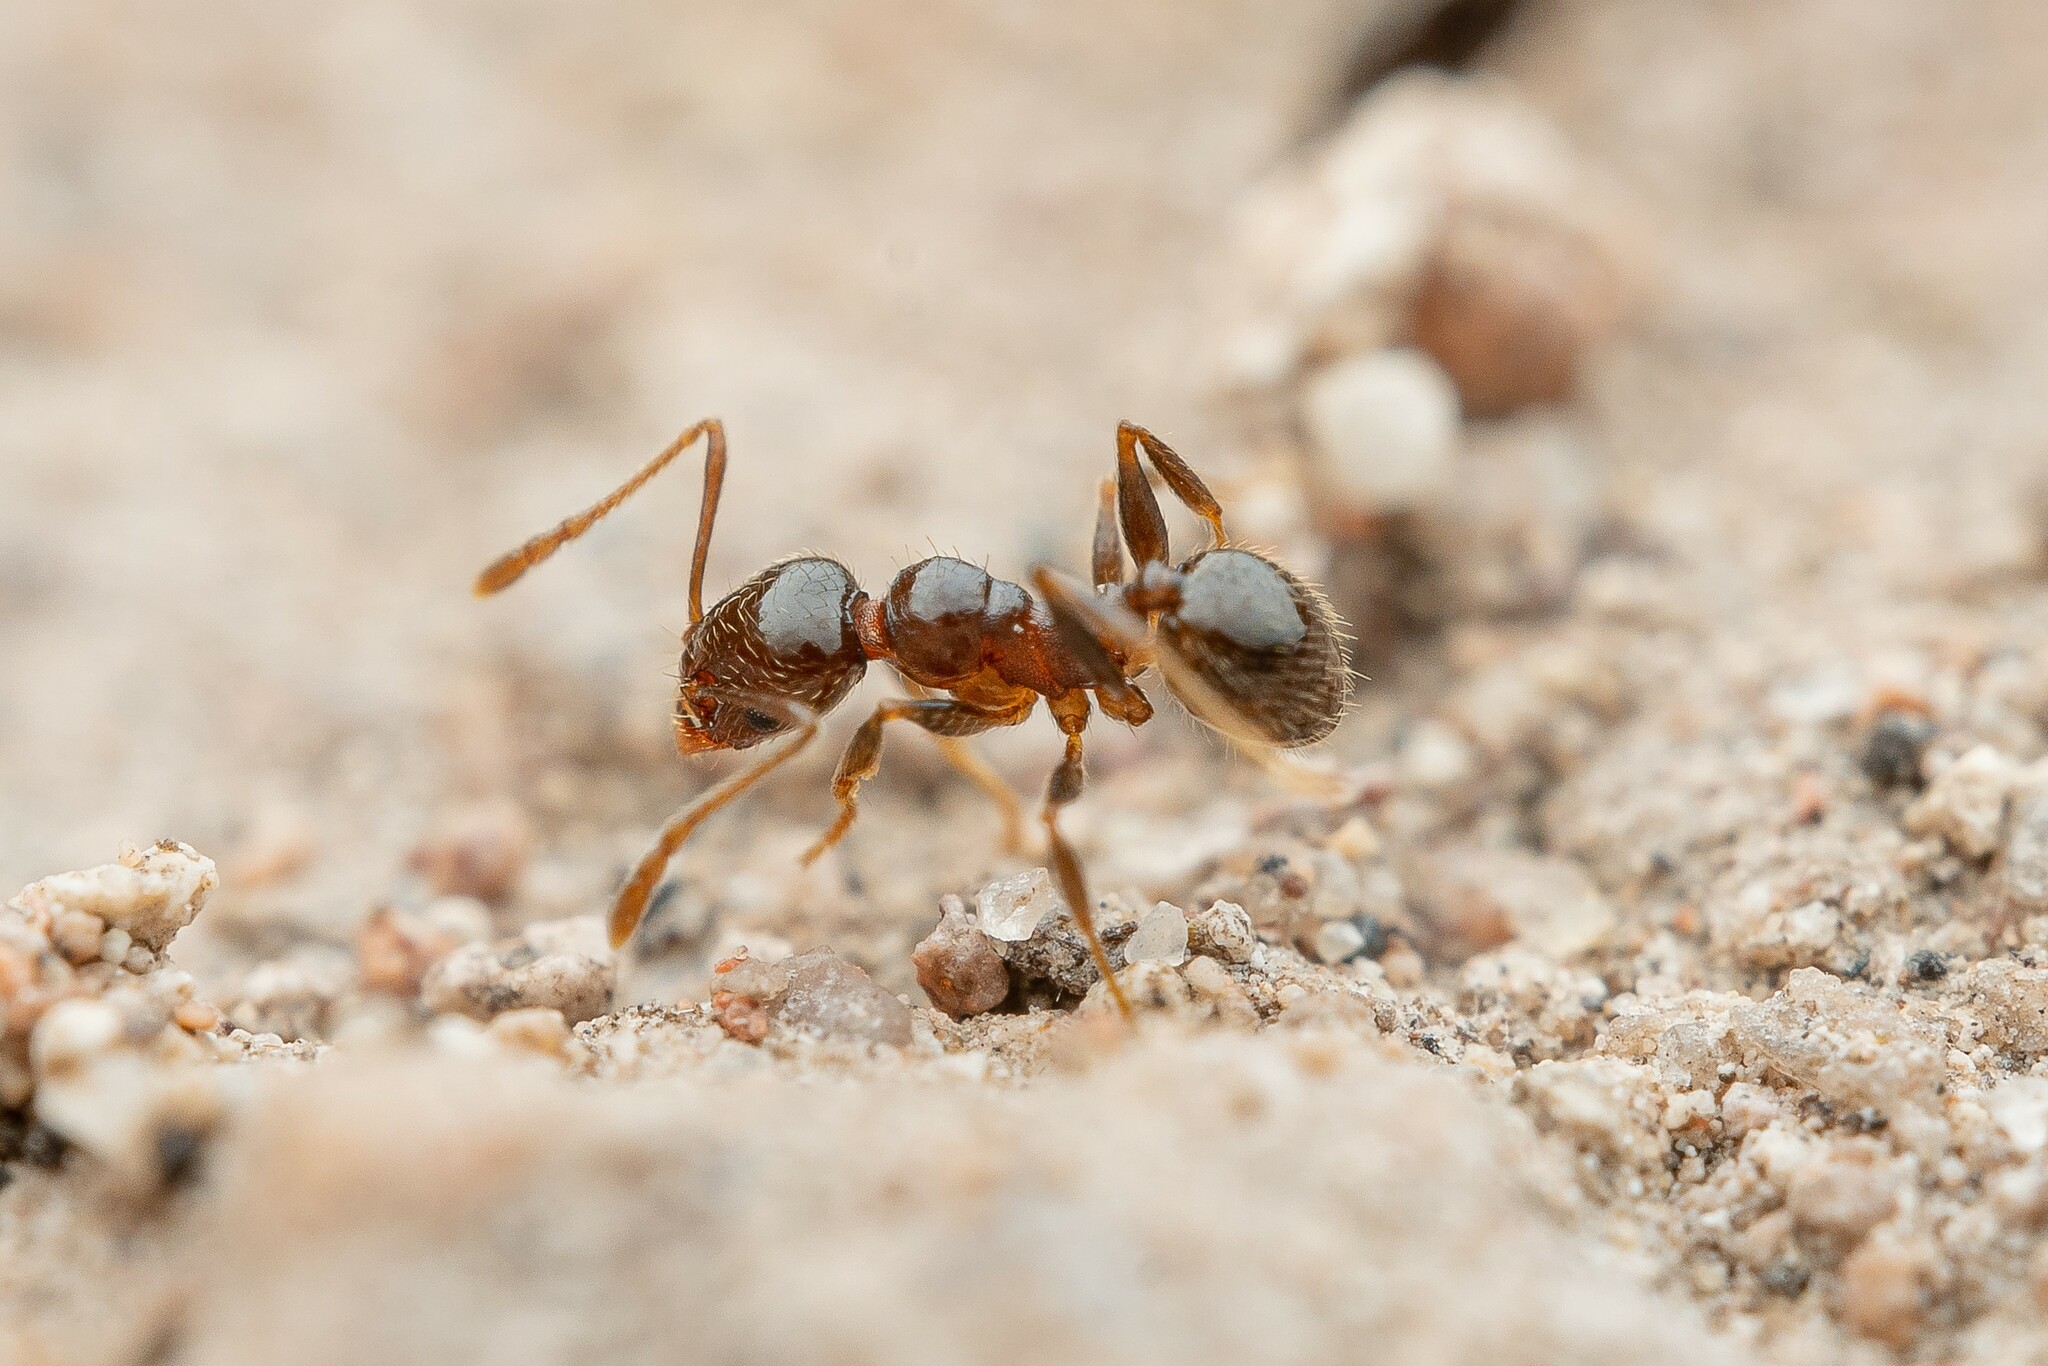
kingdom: Animalia
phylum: Arthropoda
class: Insecta
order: Hymenoptera
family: Formicidae
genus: Pheidole
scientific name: Pheidole diversipilosa
